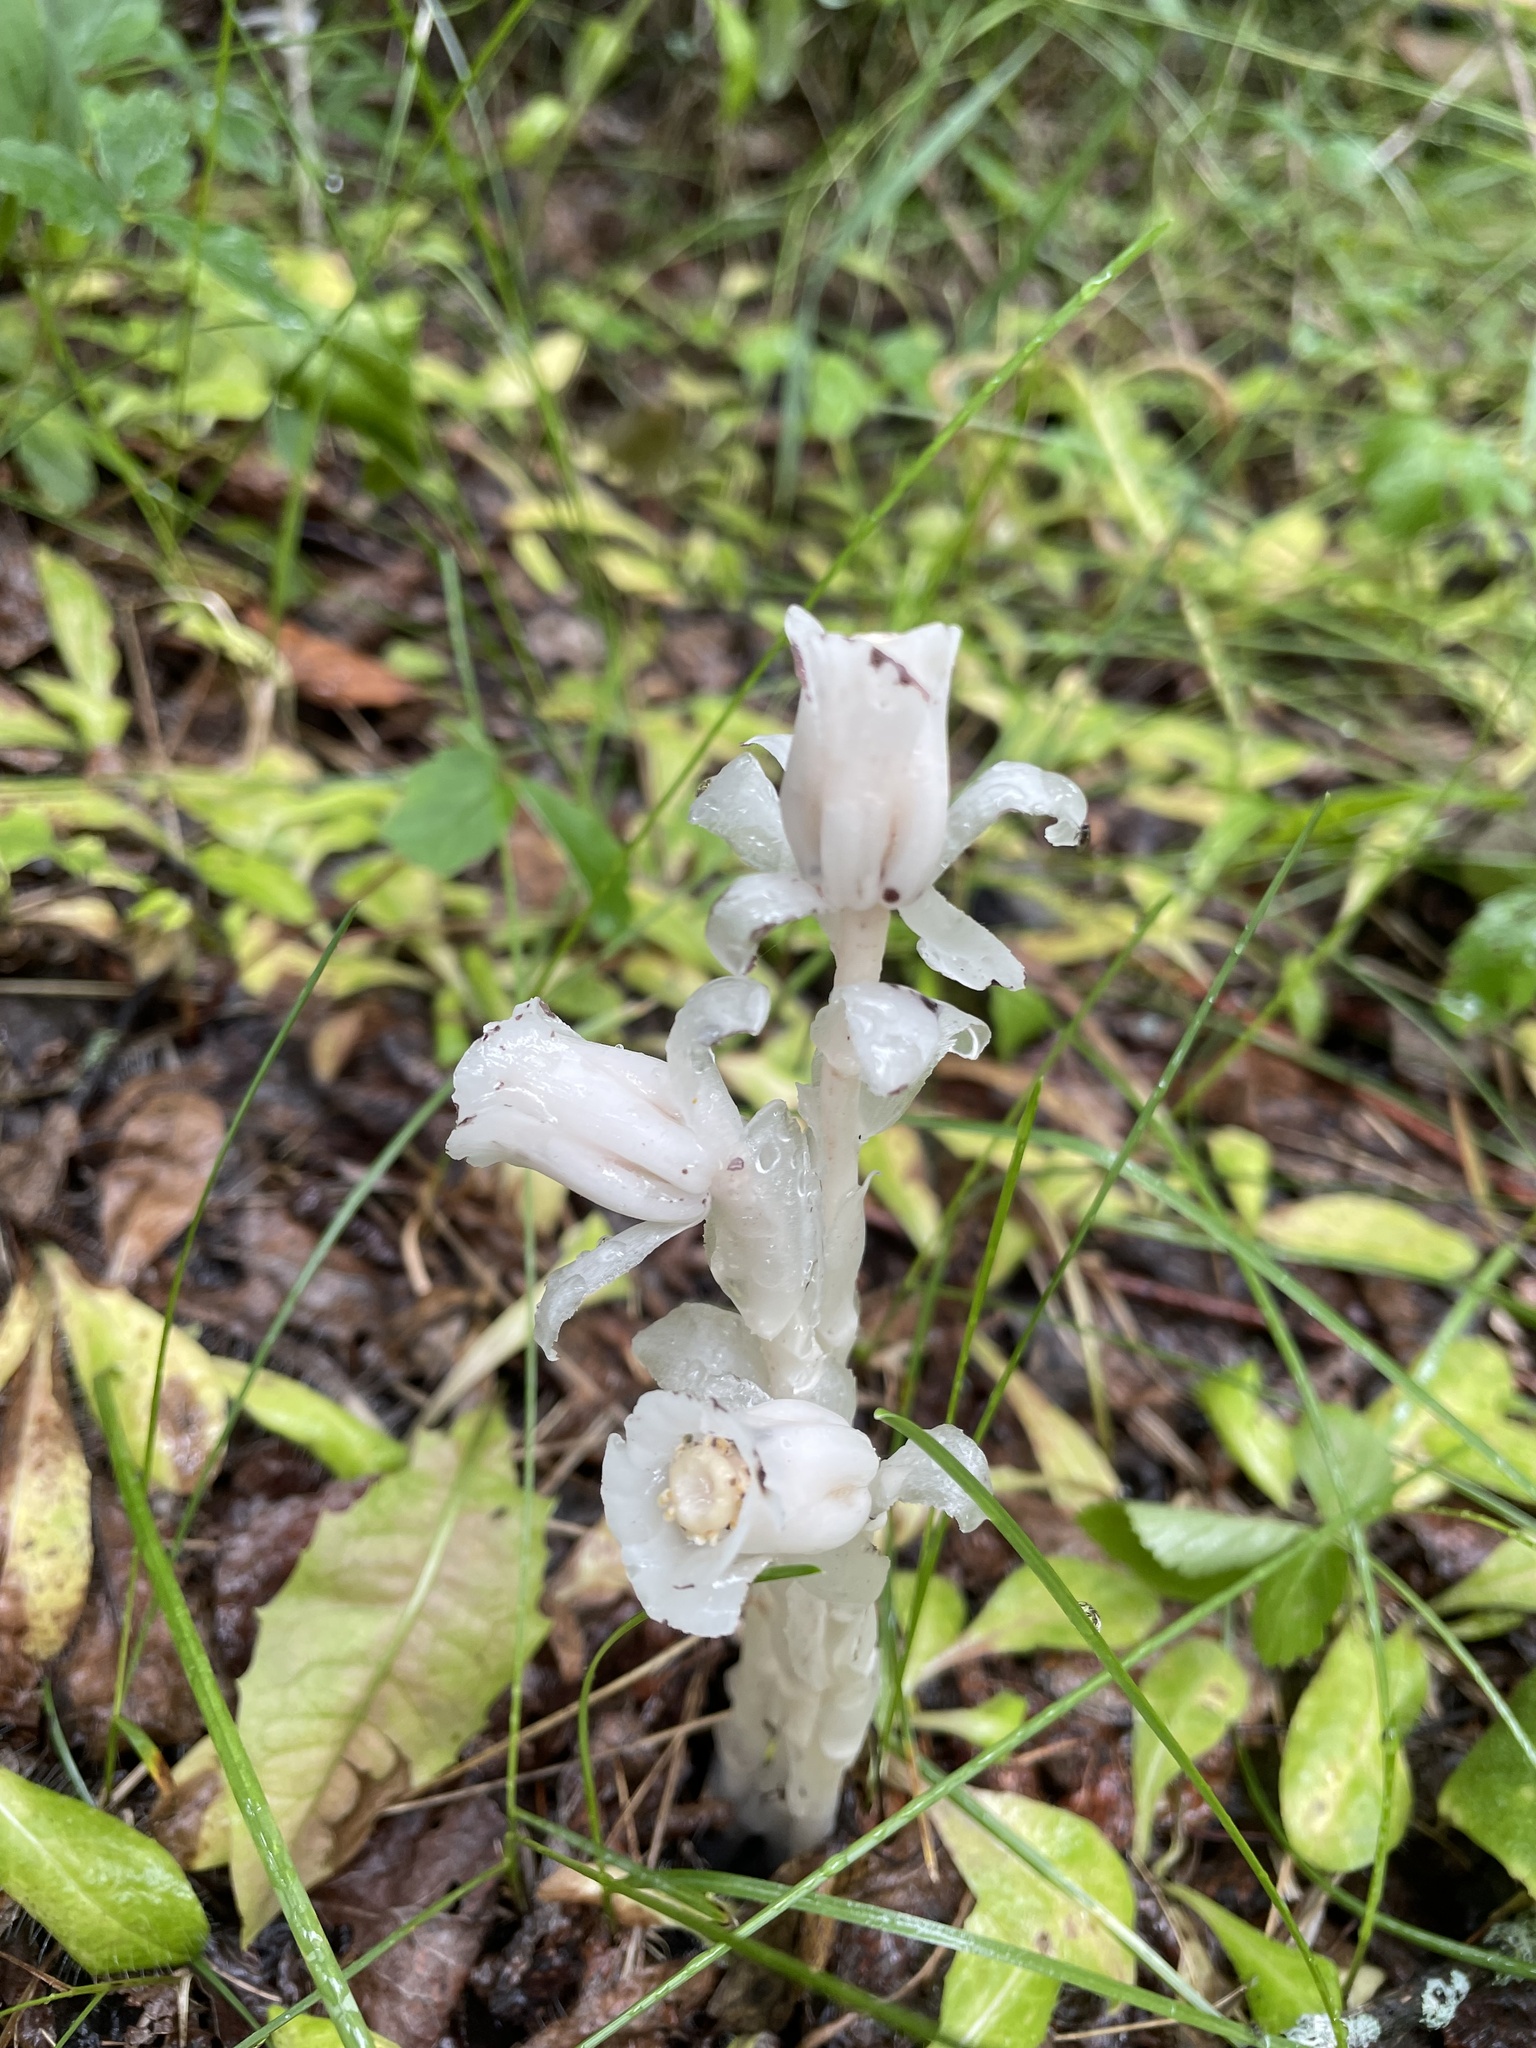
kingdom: Plantae
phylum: Tracheophyta
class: Magnoliopsida
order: Ericales
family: Ericaceae
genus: Monotropa
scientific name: Monotropa uniflora
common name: Convulsion root
